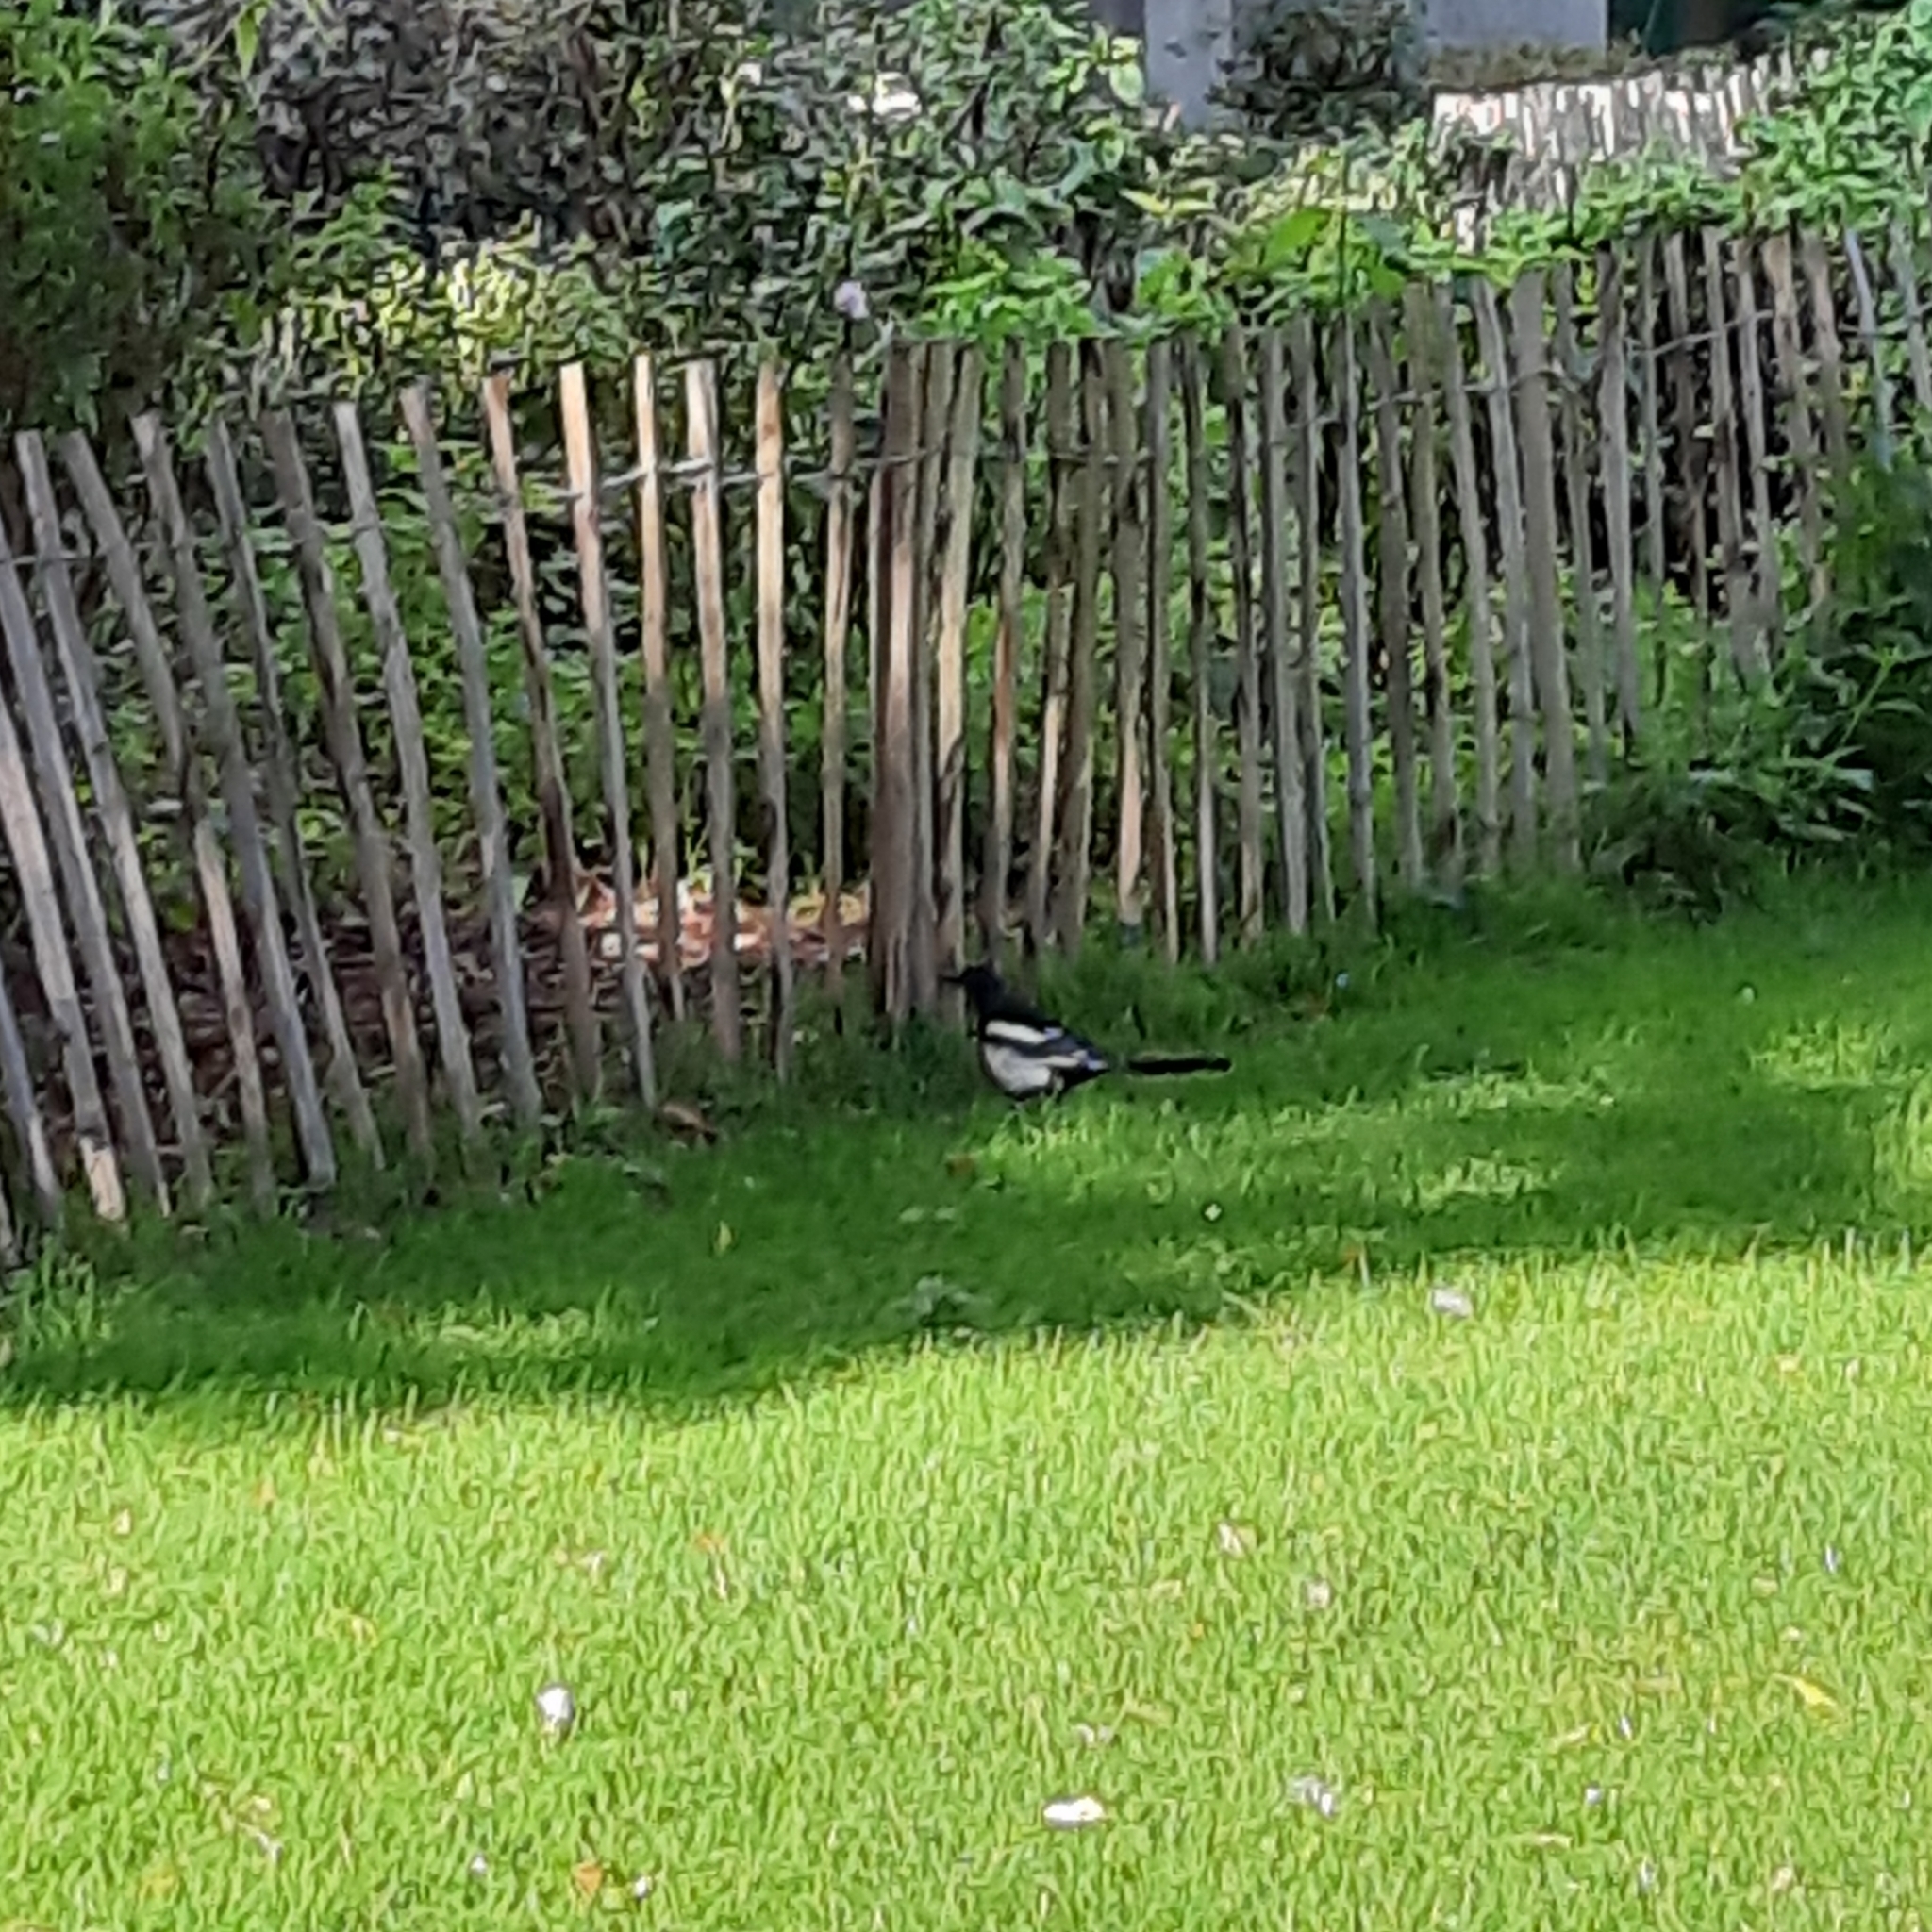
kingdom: Animalia
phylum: Chordata
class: Aves
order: Passeriformes
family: Corvidae
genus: Pica
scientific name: Pica pica
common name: Eurasian magpie
